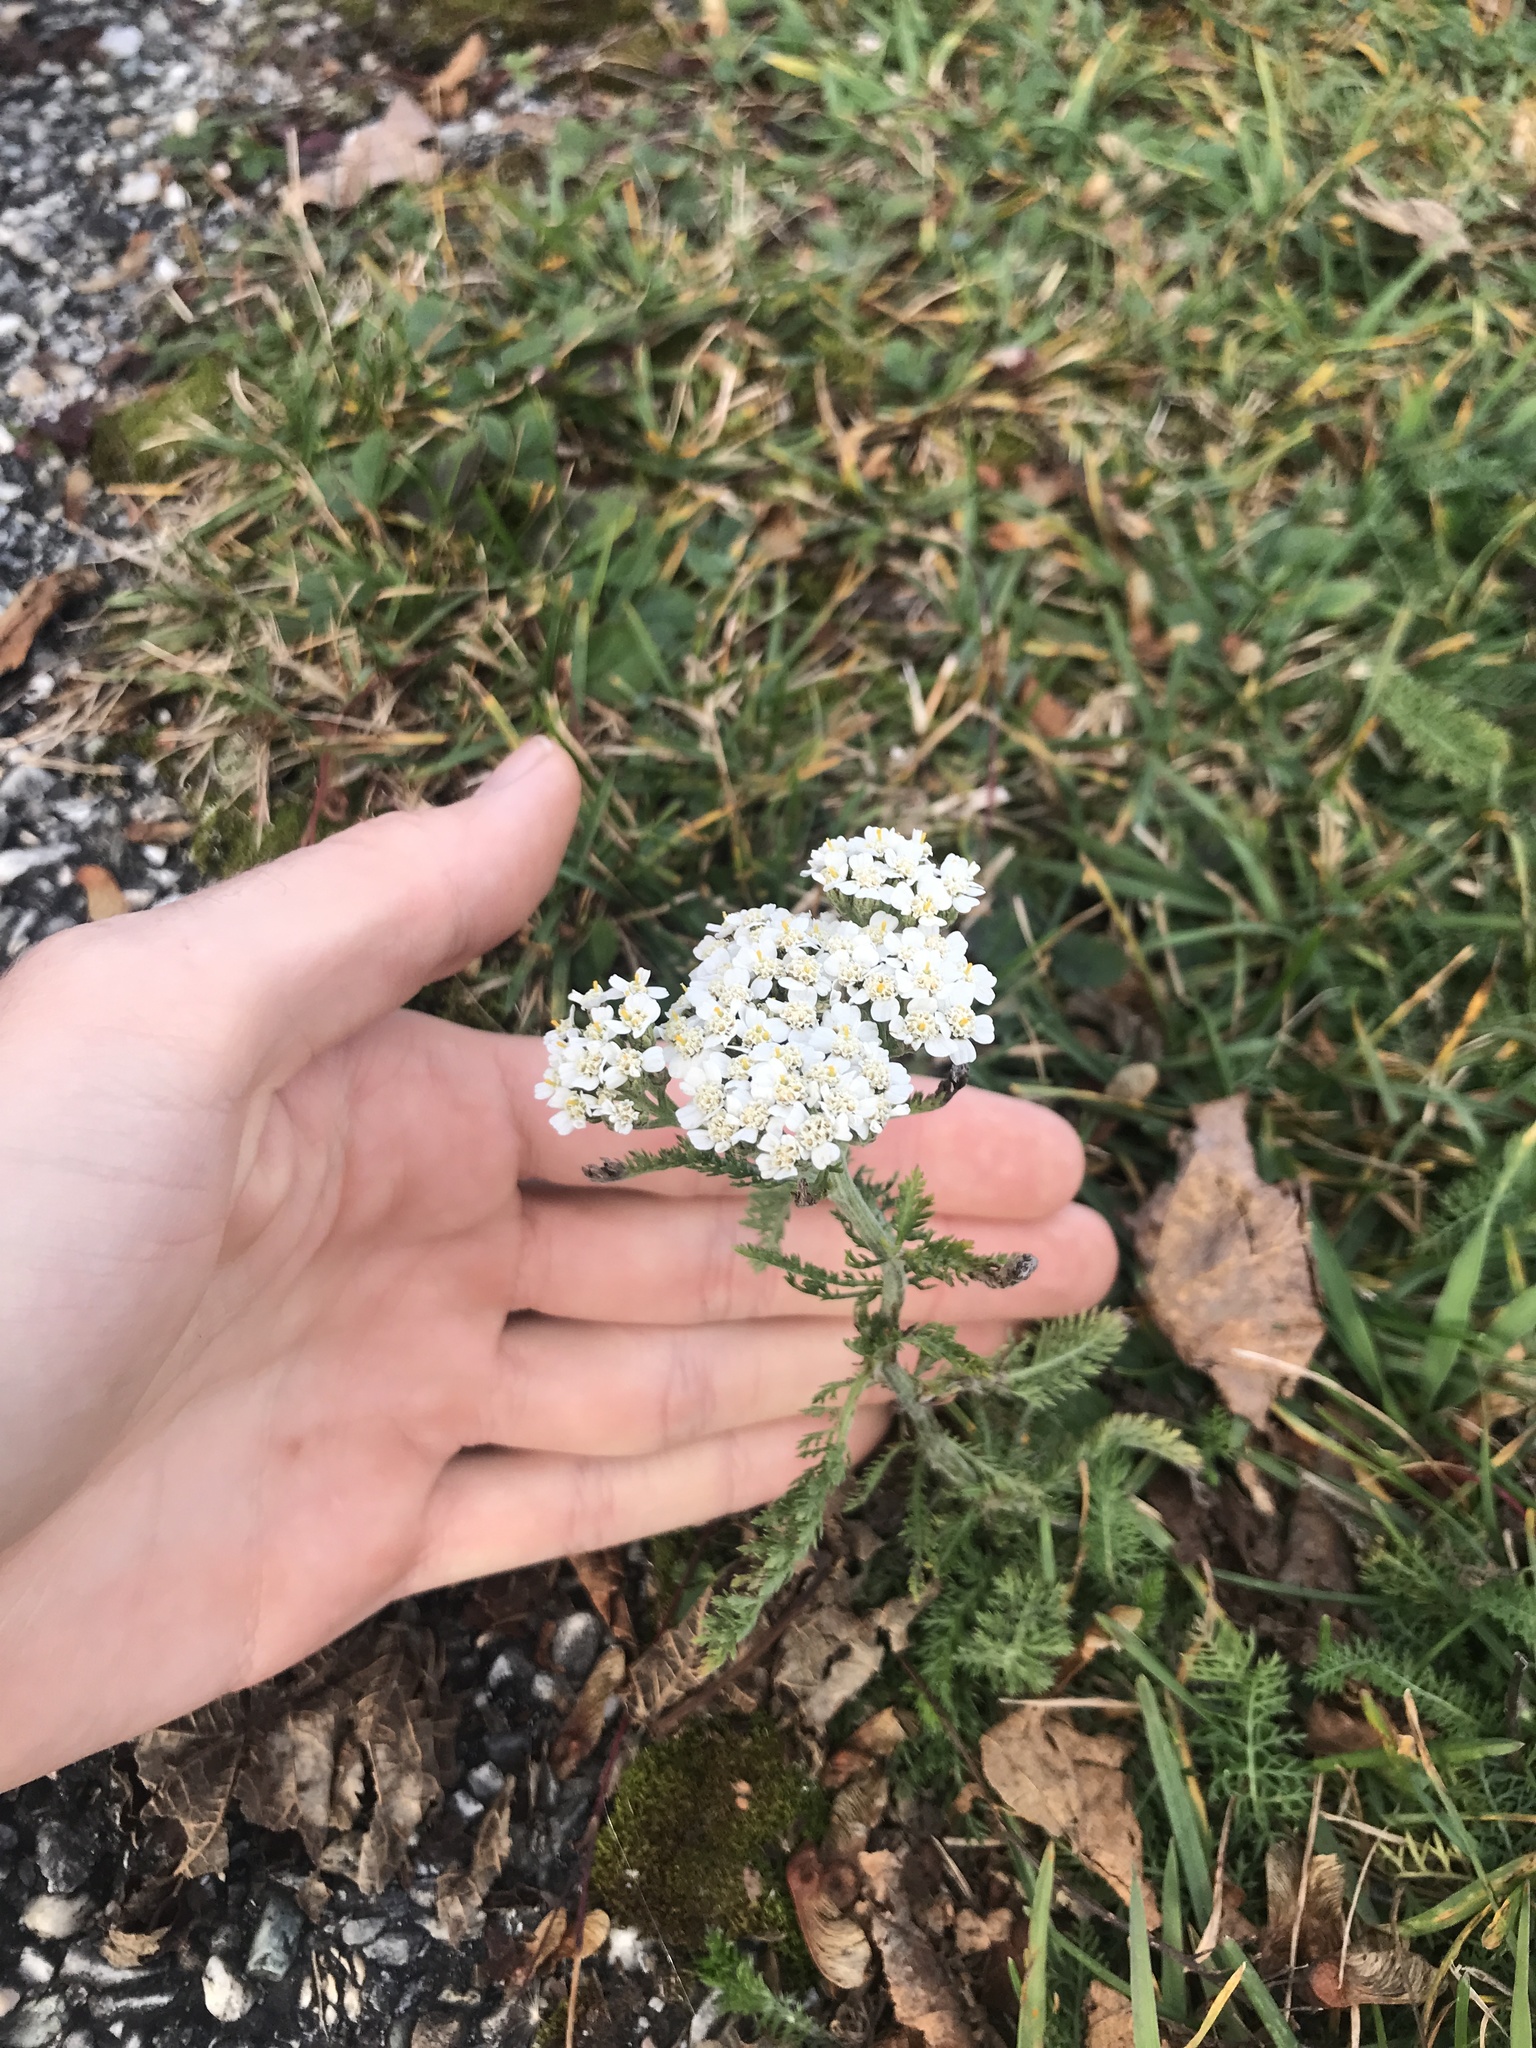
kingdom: Plantae
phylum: Tracheophyta
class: Magnoliopsida
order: Asterales
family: Asteraceae
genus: Achillea
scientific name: Achillea millefolium
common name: Yarrow
